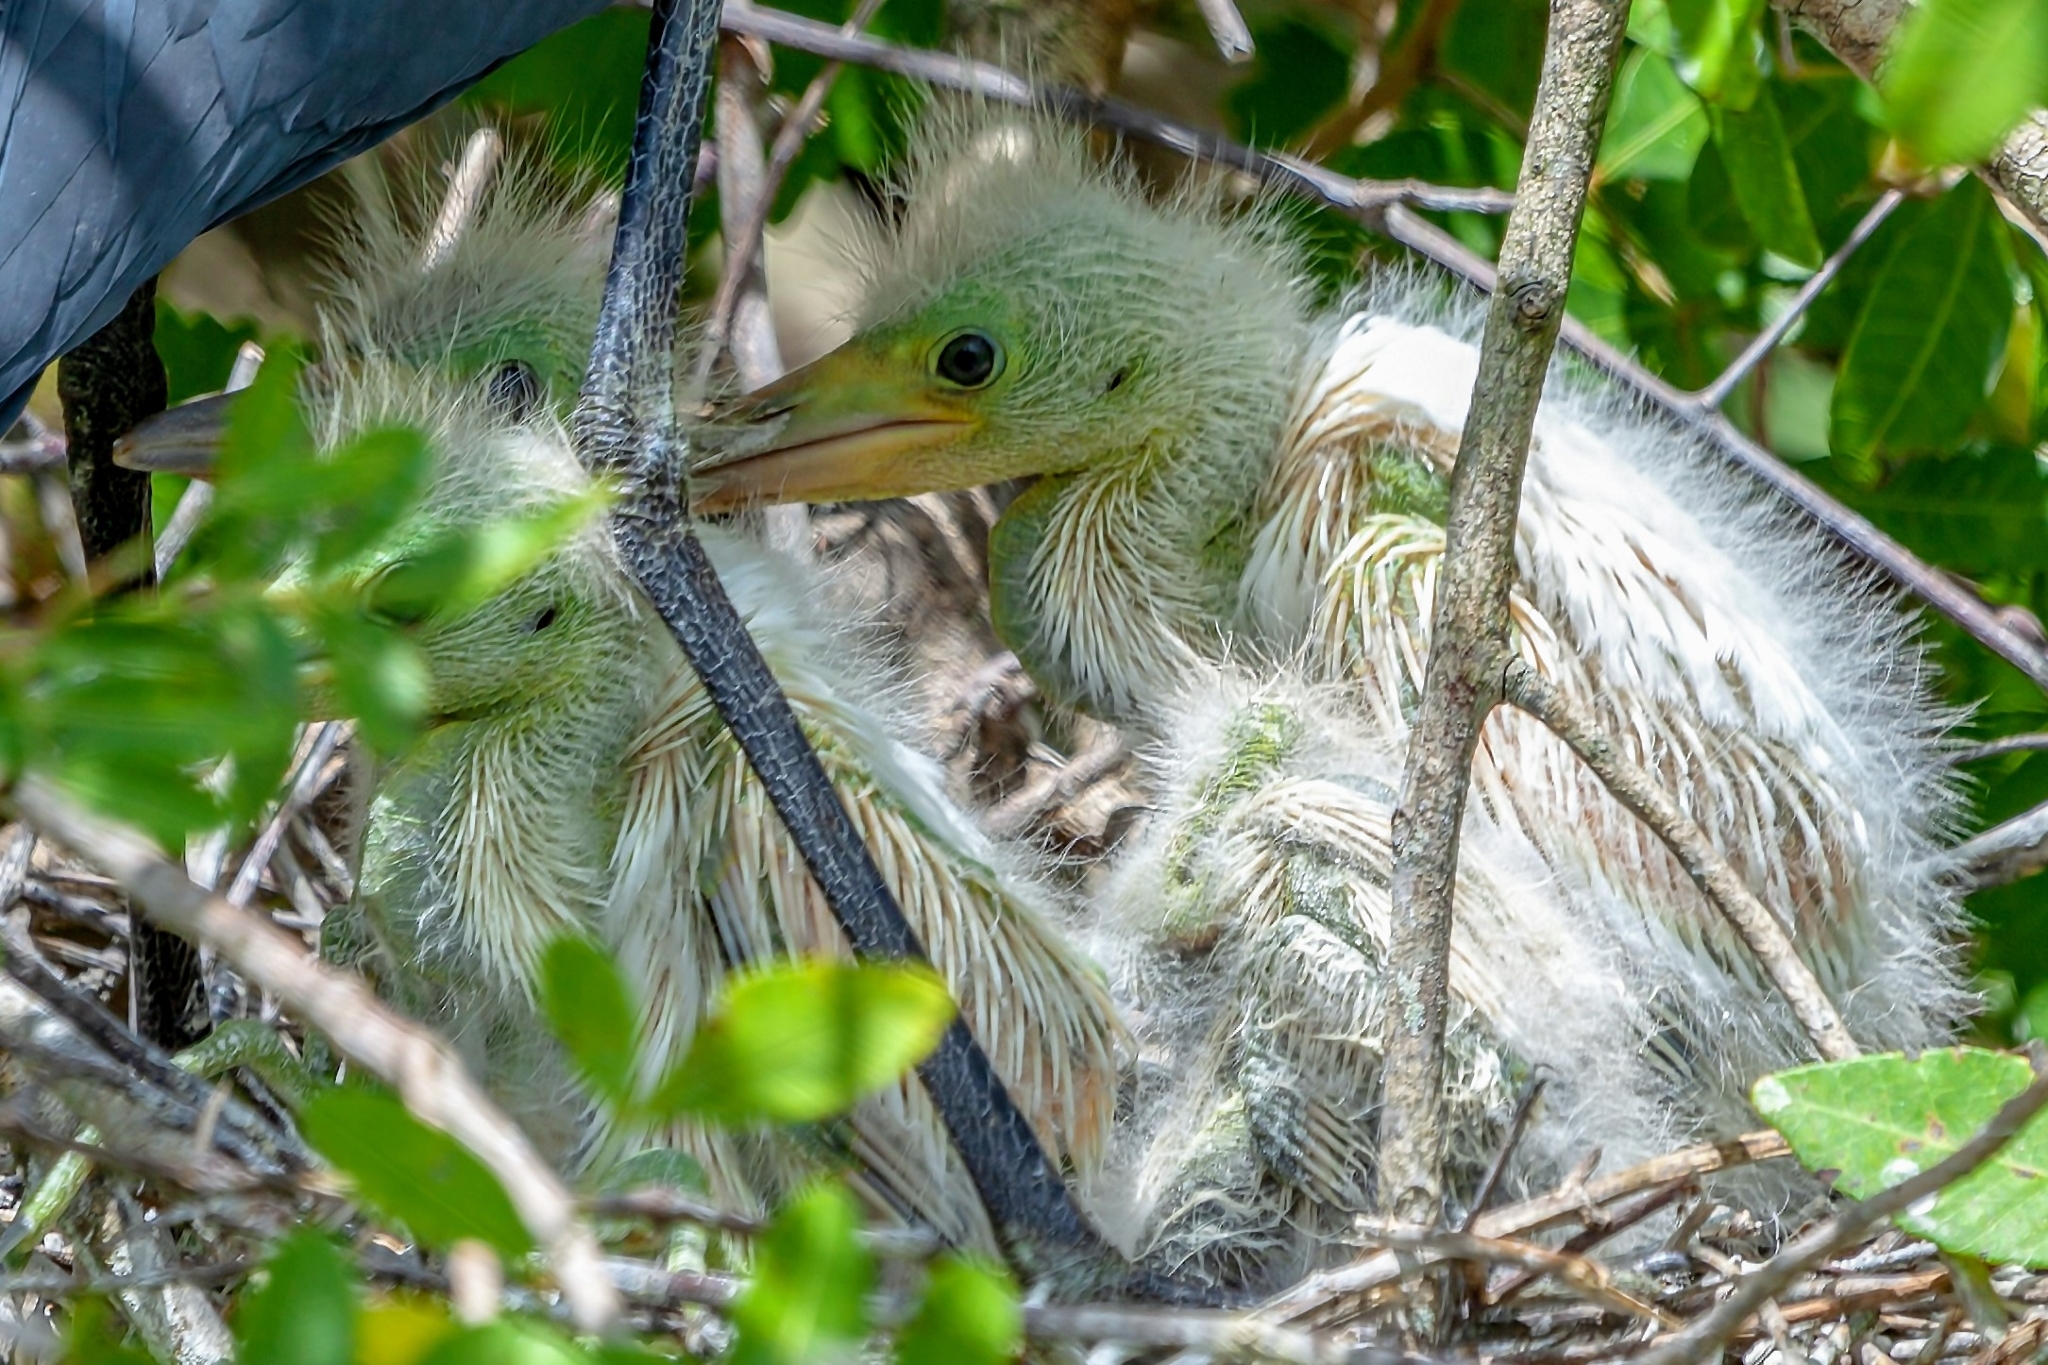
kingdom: Animalia
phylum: Chordata
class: Aves
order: Pelecaniformes
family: Ardeidae
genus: Egretta
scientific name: Egretta caerulea
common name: Little blue heron
